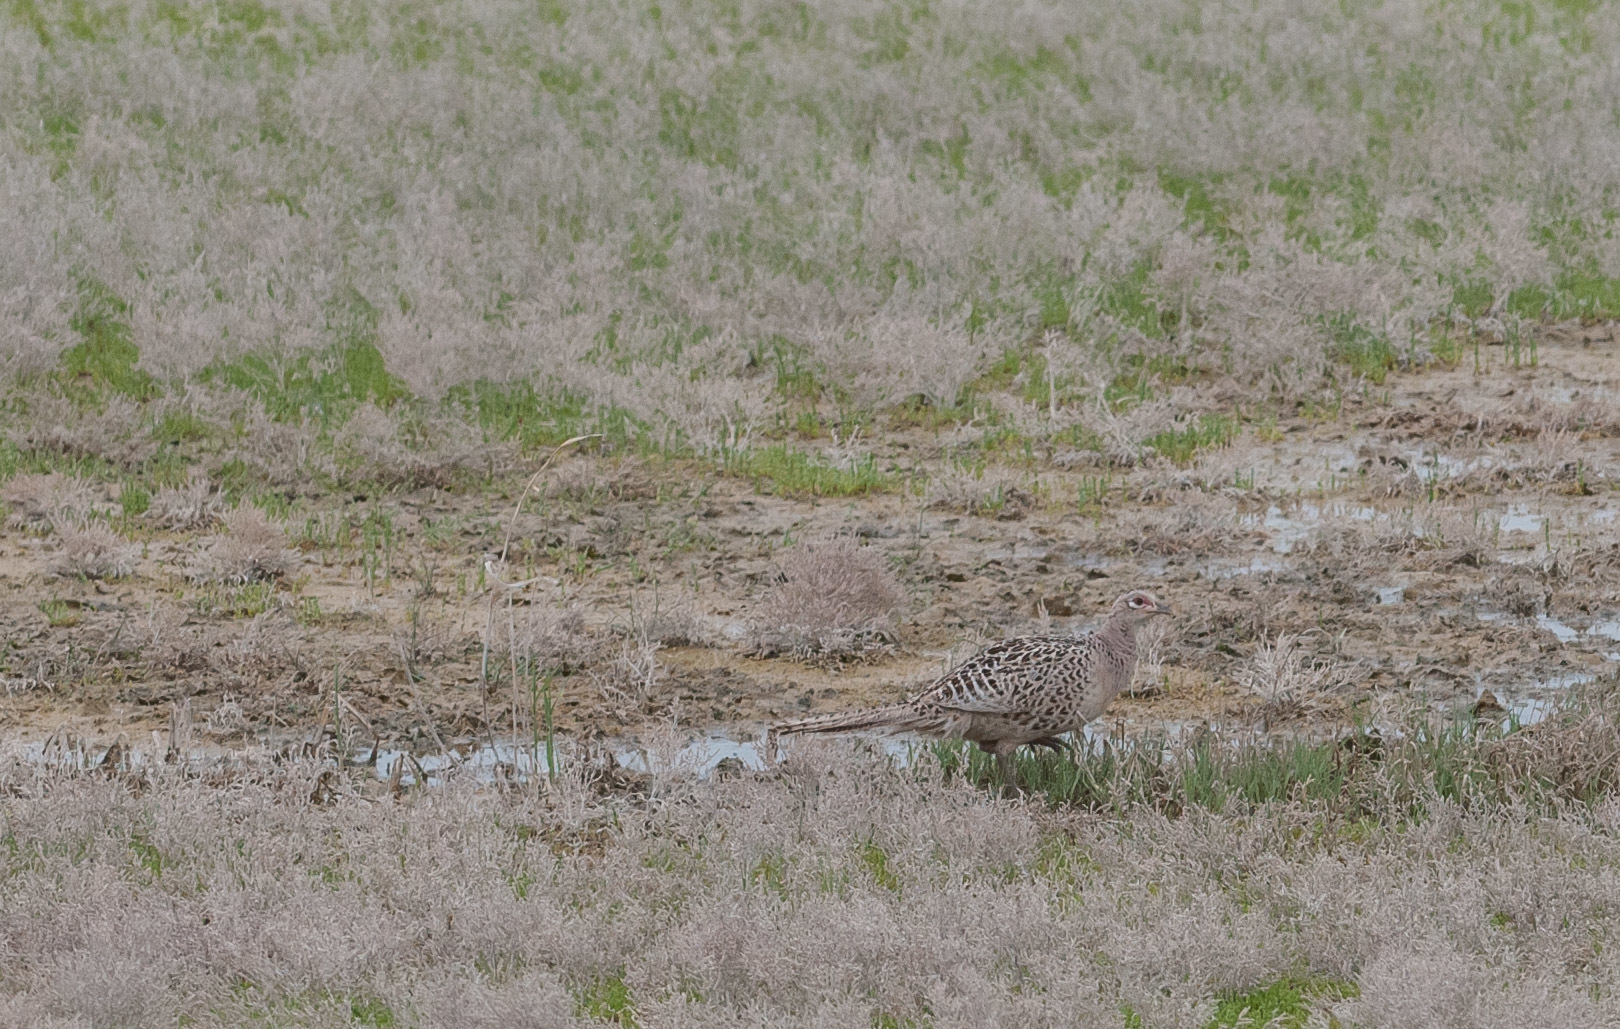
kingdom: Animalia
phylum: Chordata
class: Aves
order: Galliformes
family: Phasianidae
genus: Phasianus
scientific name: Phasianus colchicus
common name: Common pheasant
